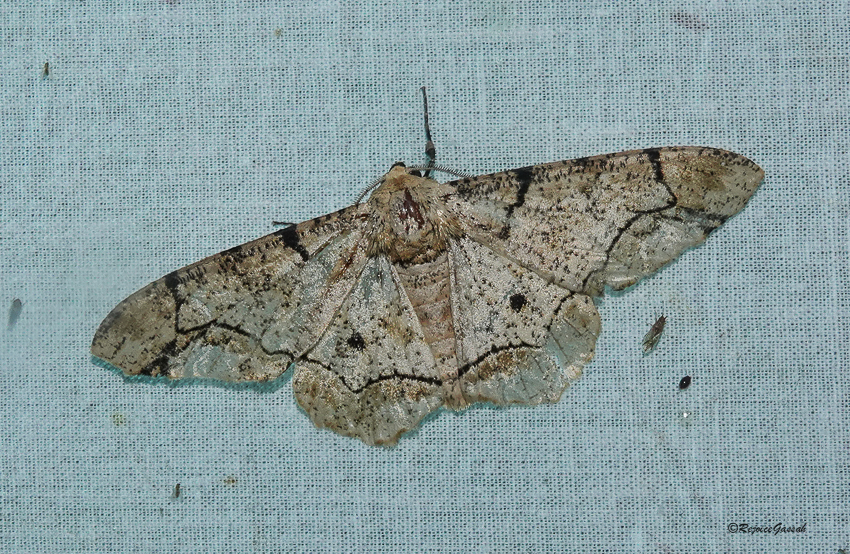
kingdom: Animalia
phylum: Arthropoda
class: Insecta
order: Lepidoptera
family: Geometridae
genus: Biston
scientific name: Biston bengaliaria
